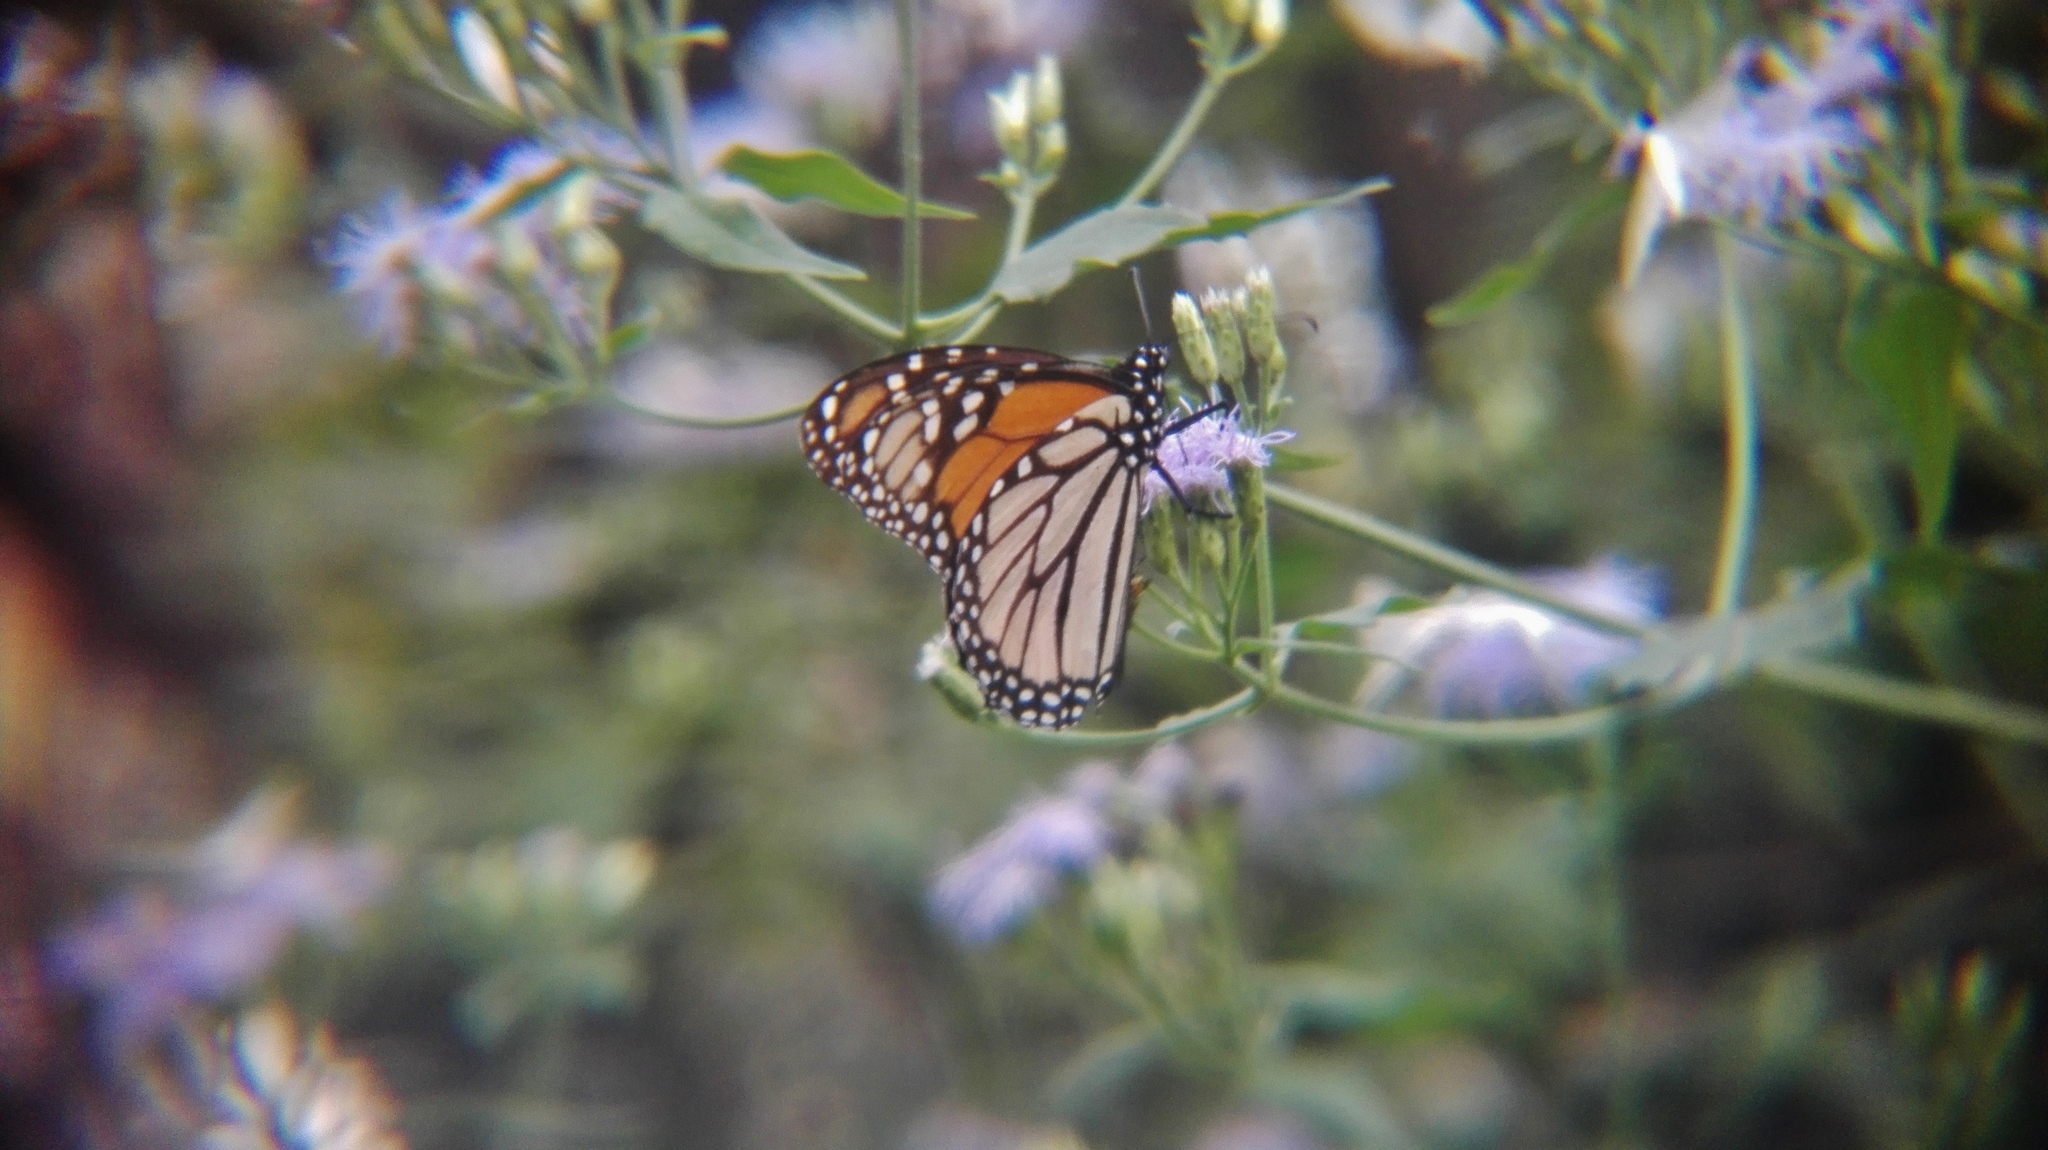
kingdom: Animalia
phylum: Arthropoda
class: Insecta
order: Lepidoptera
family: Nymphalidae
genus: Danaus
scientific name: Danaus plexippus
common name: Monarch
